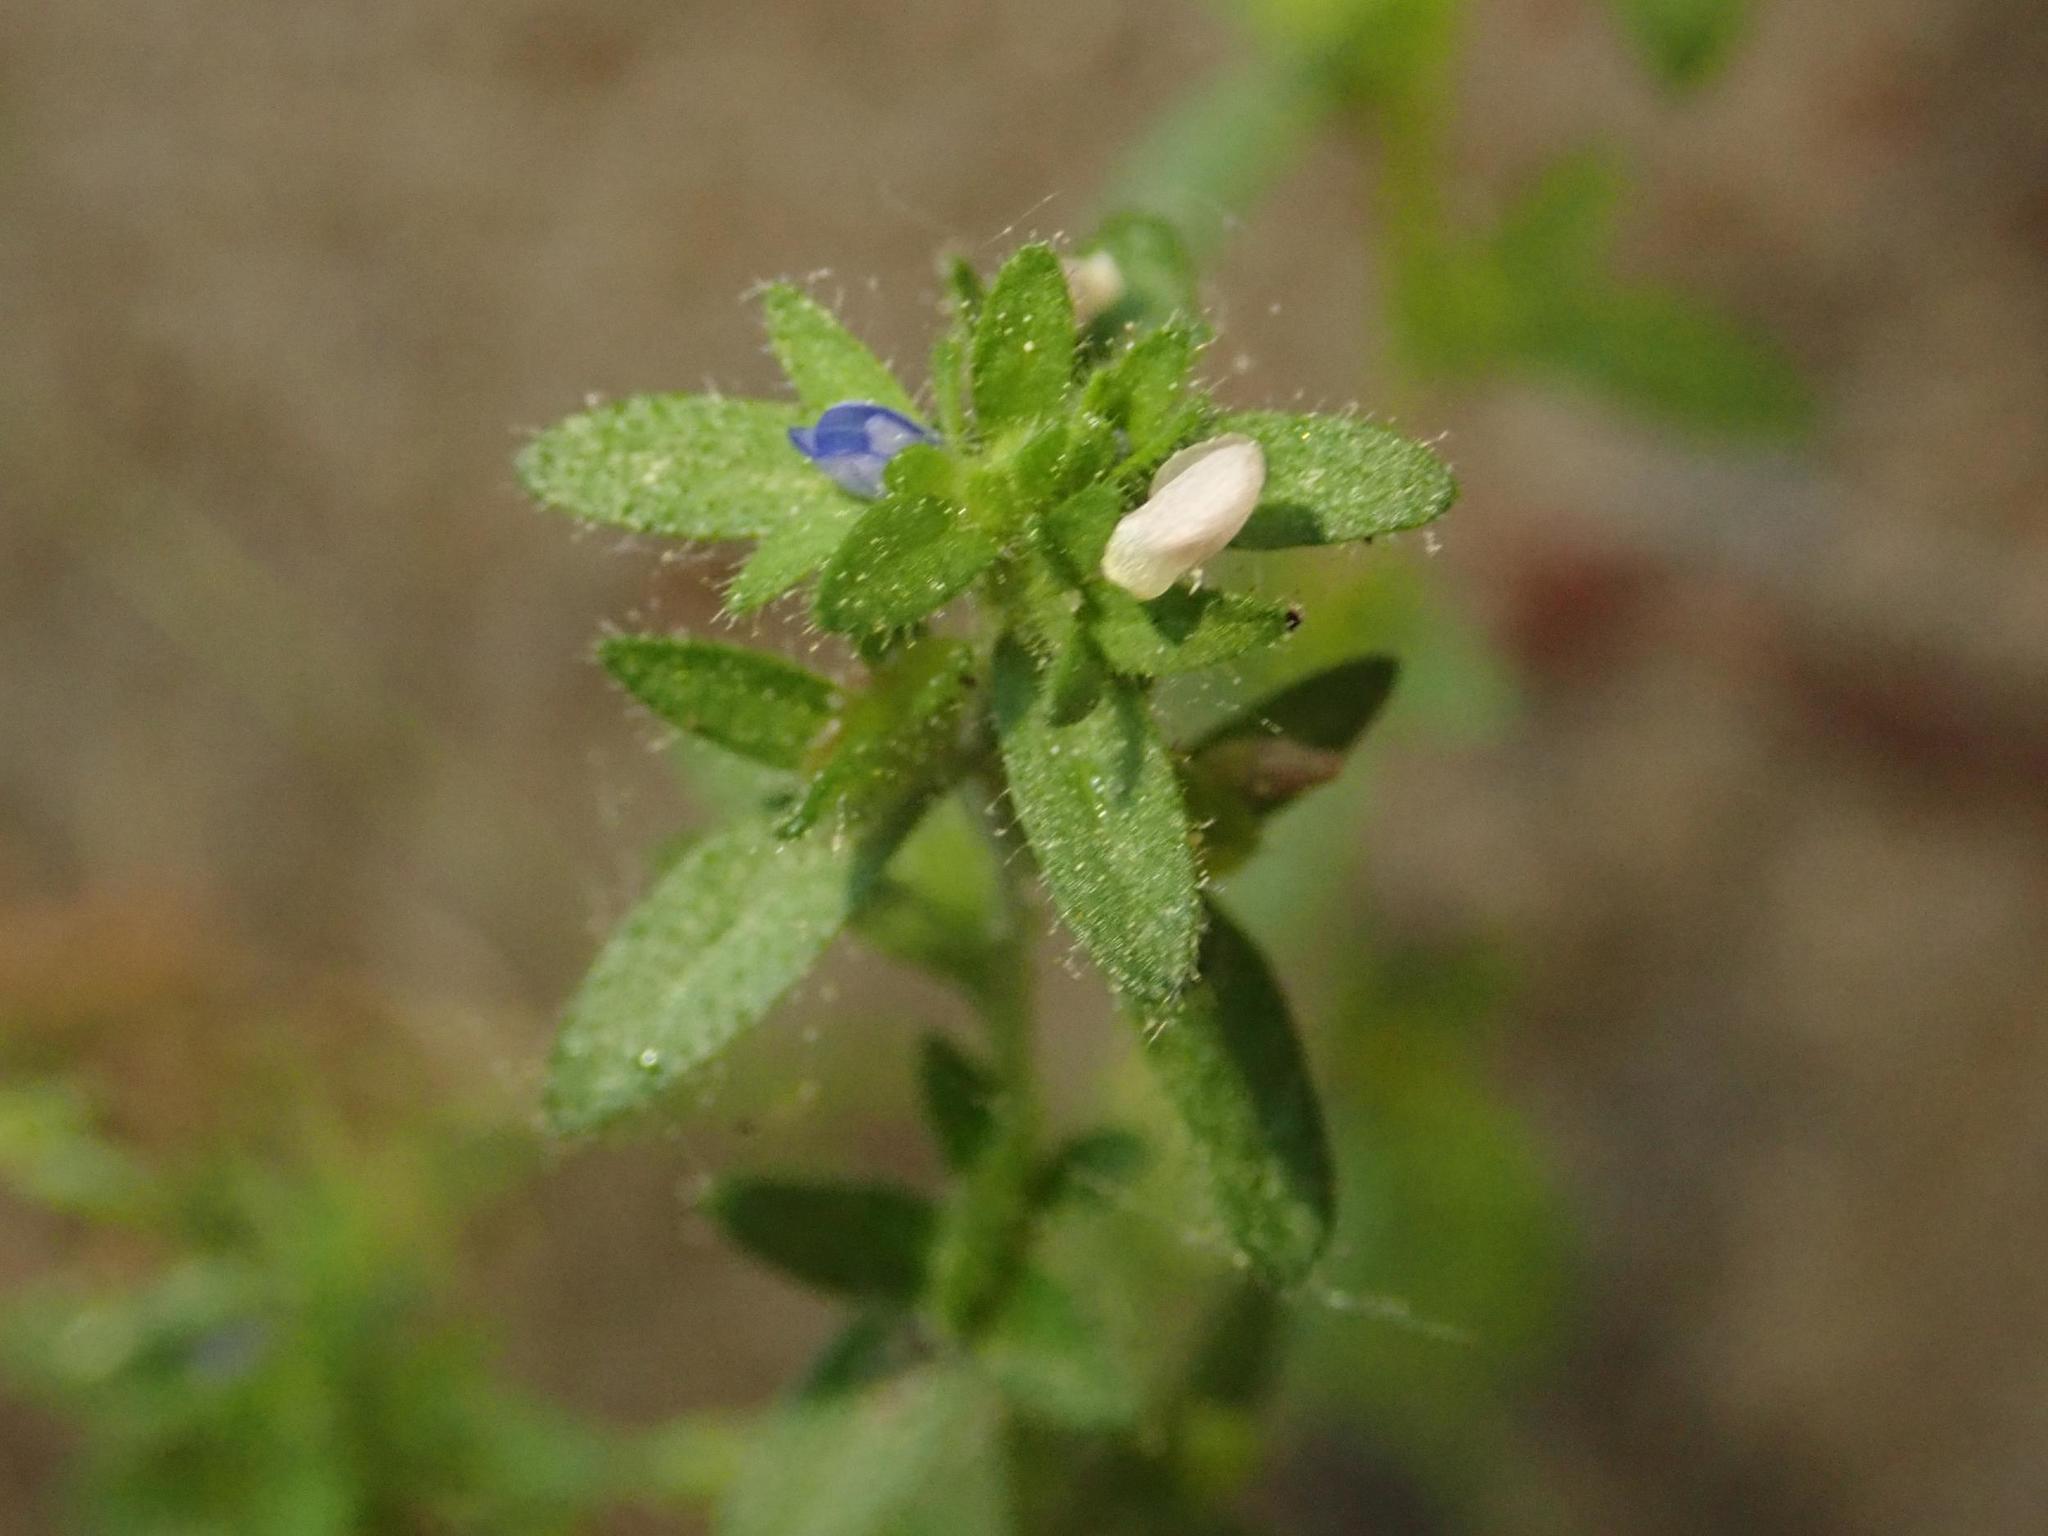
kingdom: Plantae
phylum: Tracheophyta
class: Magnoliopsida
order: Lamiales
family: Plantaginaceae
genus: Veronica
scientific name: Veronica arvensis
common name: Corn speedwell
